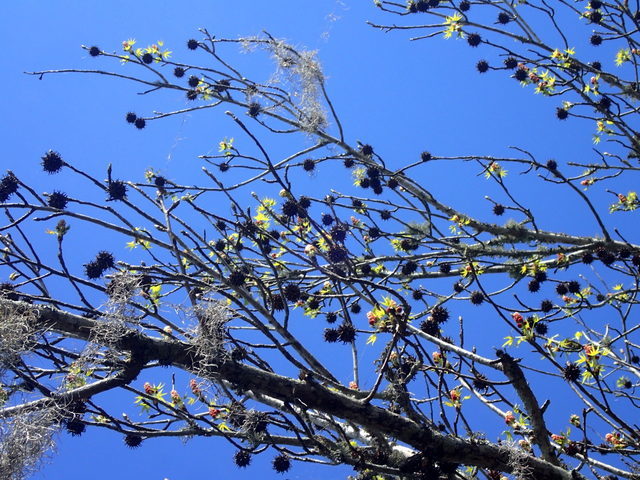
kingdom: Plantae
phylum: Tracheophyta
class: Magnoliopsida
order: Saxifragales
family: Altingiaceae
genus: Liquidambar
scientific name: Liquidambar styraciflua
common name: Sweet gum
